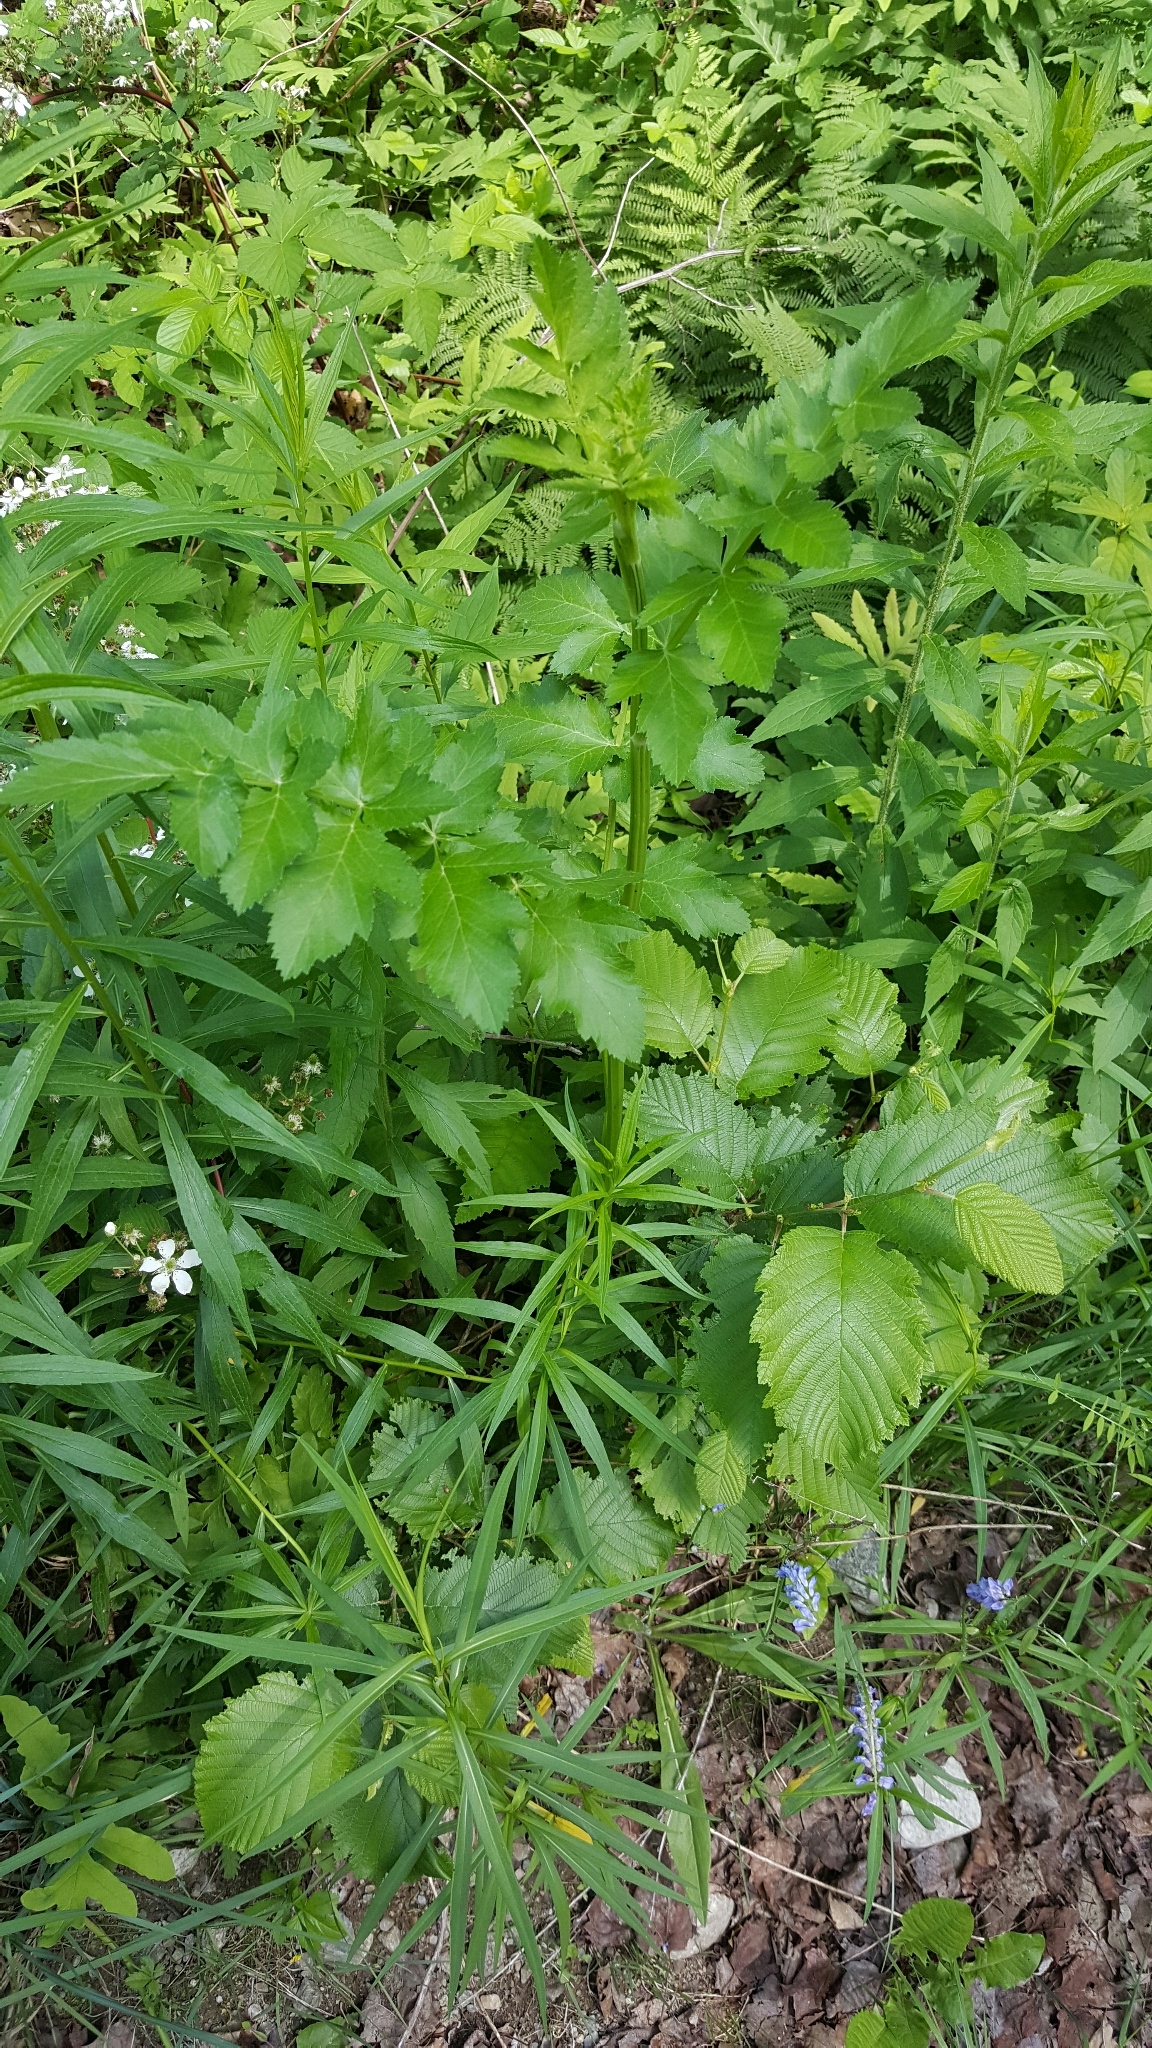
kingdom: Plantae
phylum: Tracheophyta
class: Magnoliopsida
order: Apiales
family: Apiaceae
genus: Pastinaca
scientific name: Pastinaca sativa
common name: Wild parsnip
